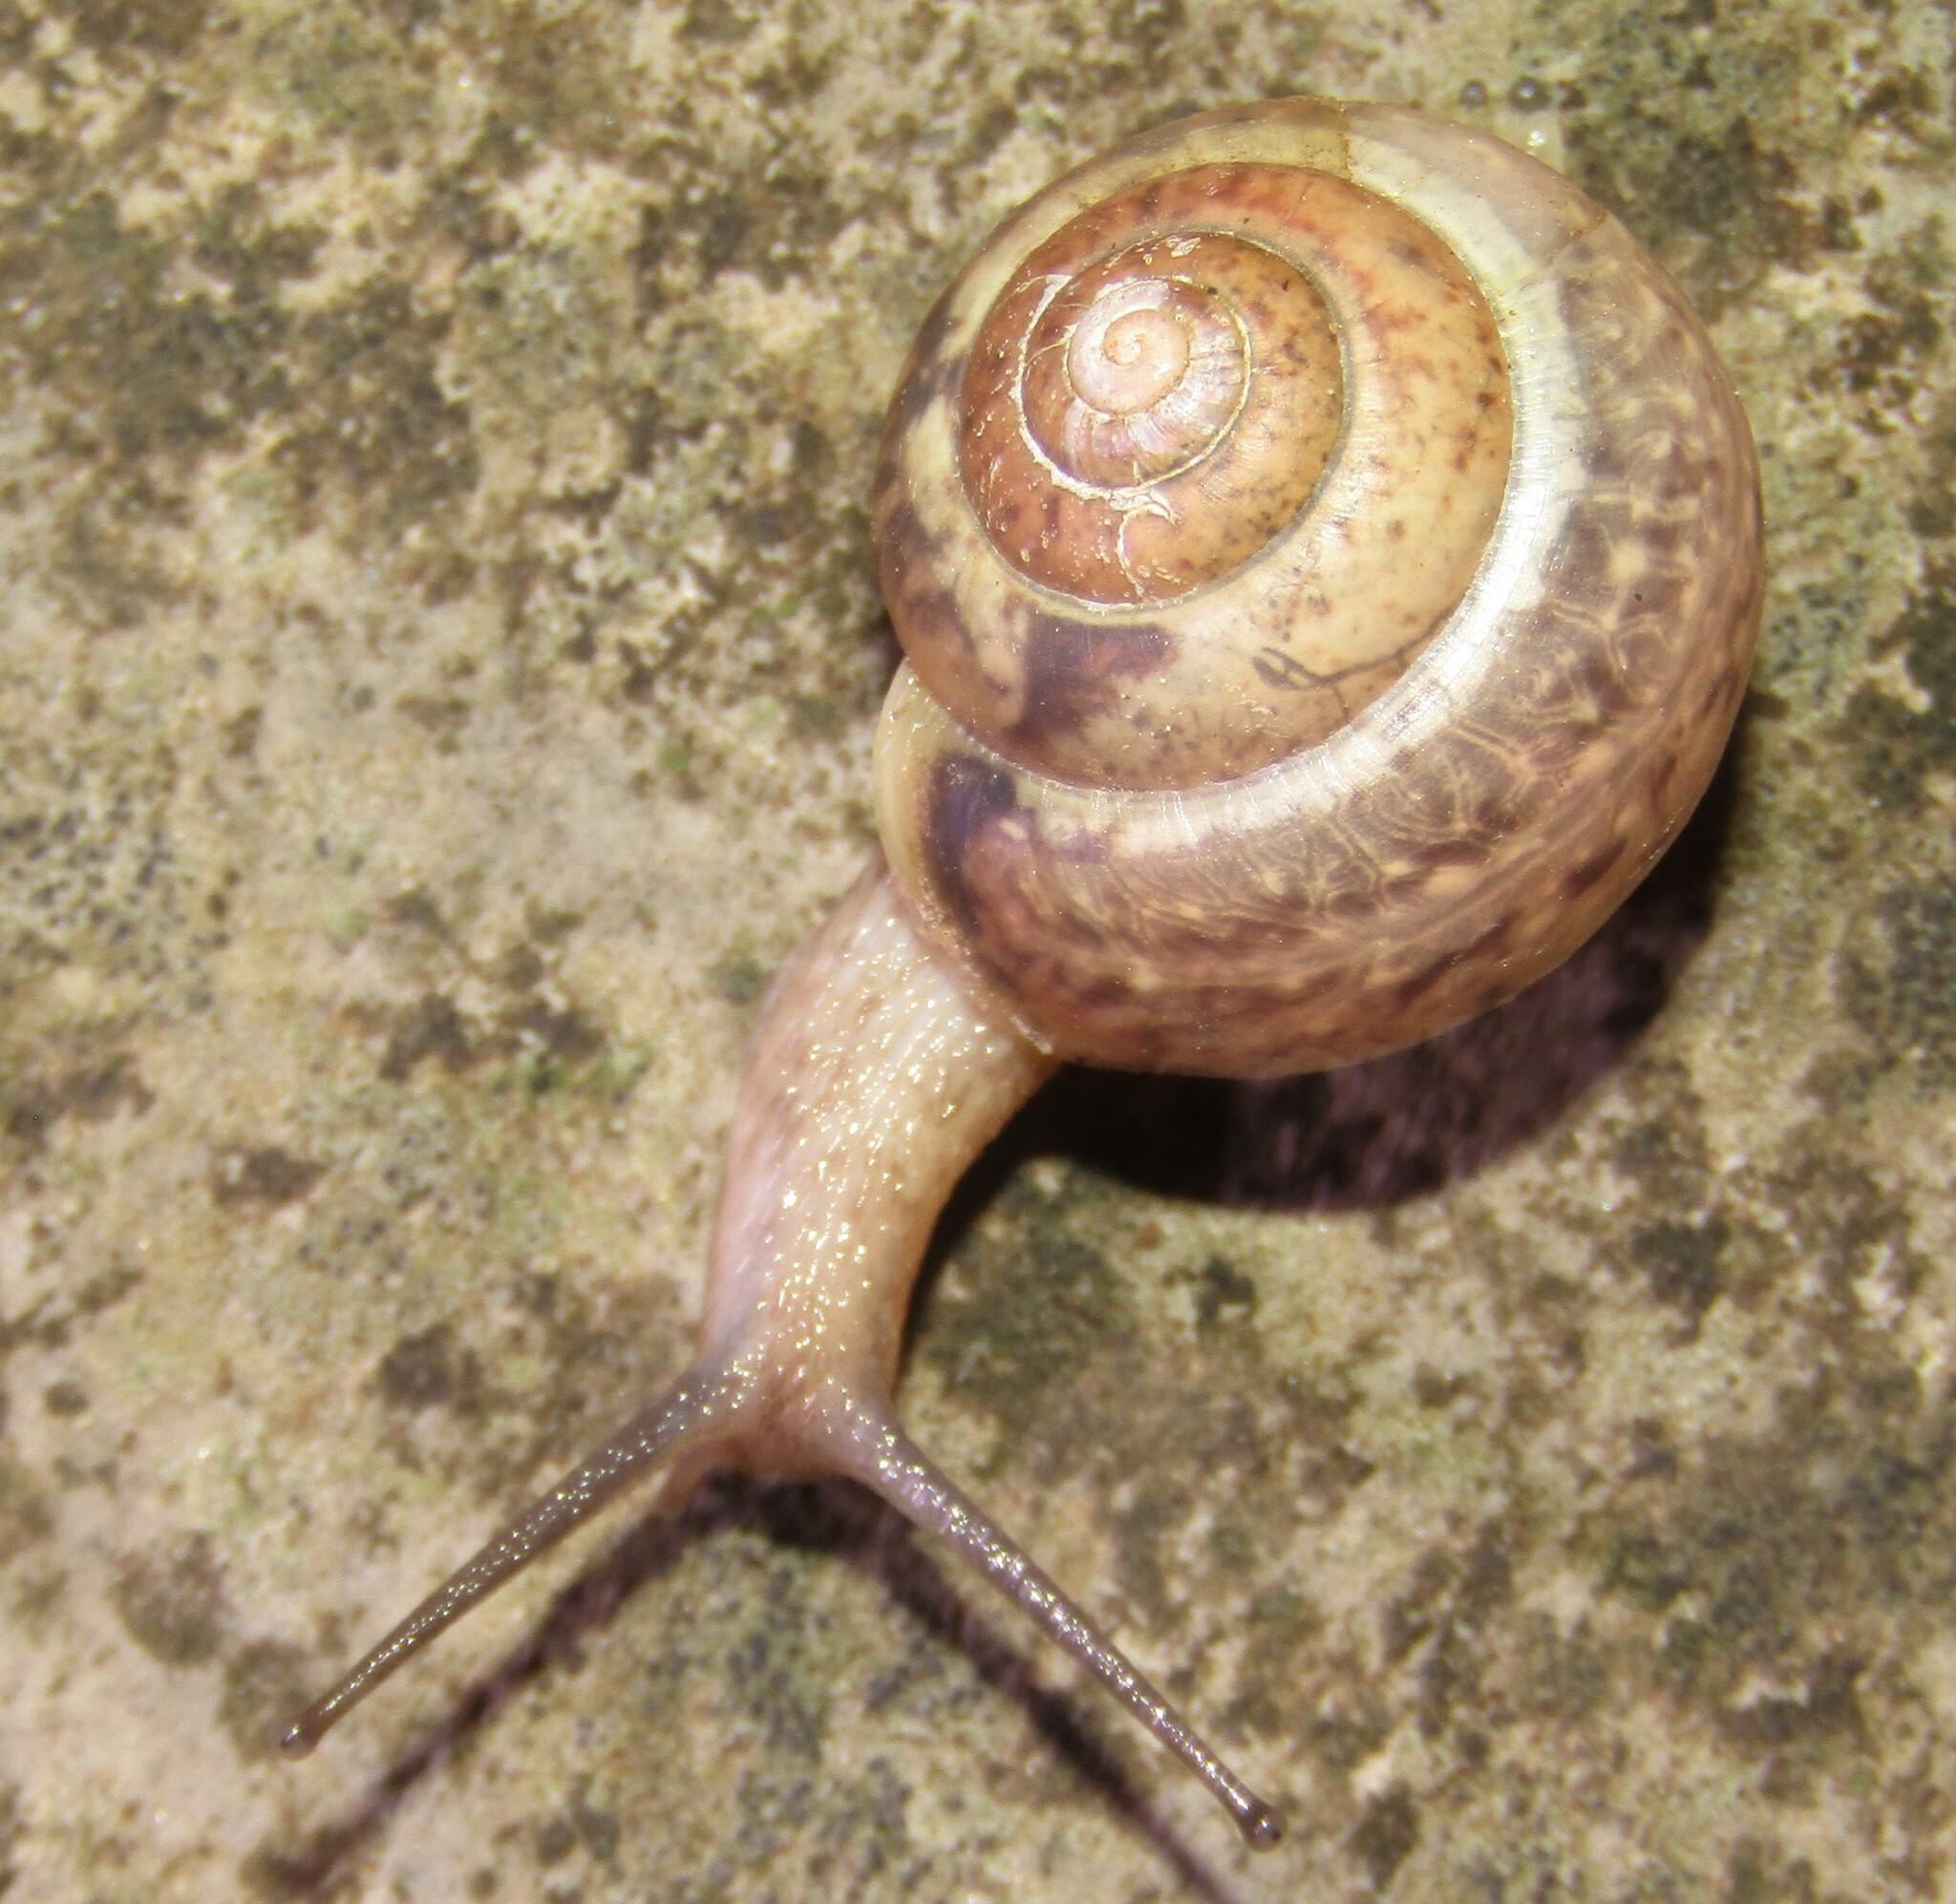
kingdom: Animalia
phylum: Mollusca
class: Gastropoda
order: Stylommatophora
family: Camaenidae
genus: Fruticicola
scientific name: Fruticicola fruticum
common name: Bush snail
